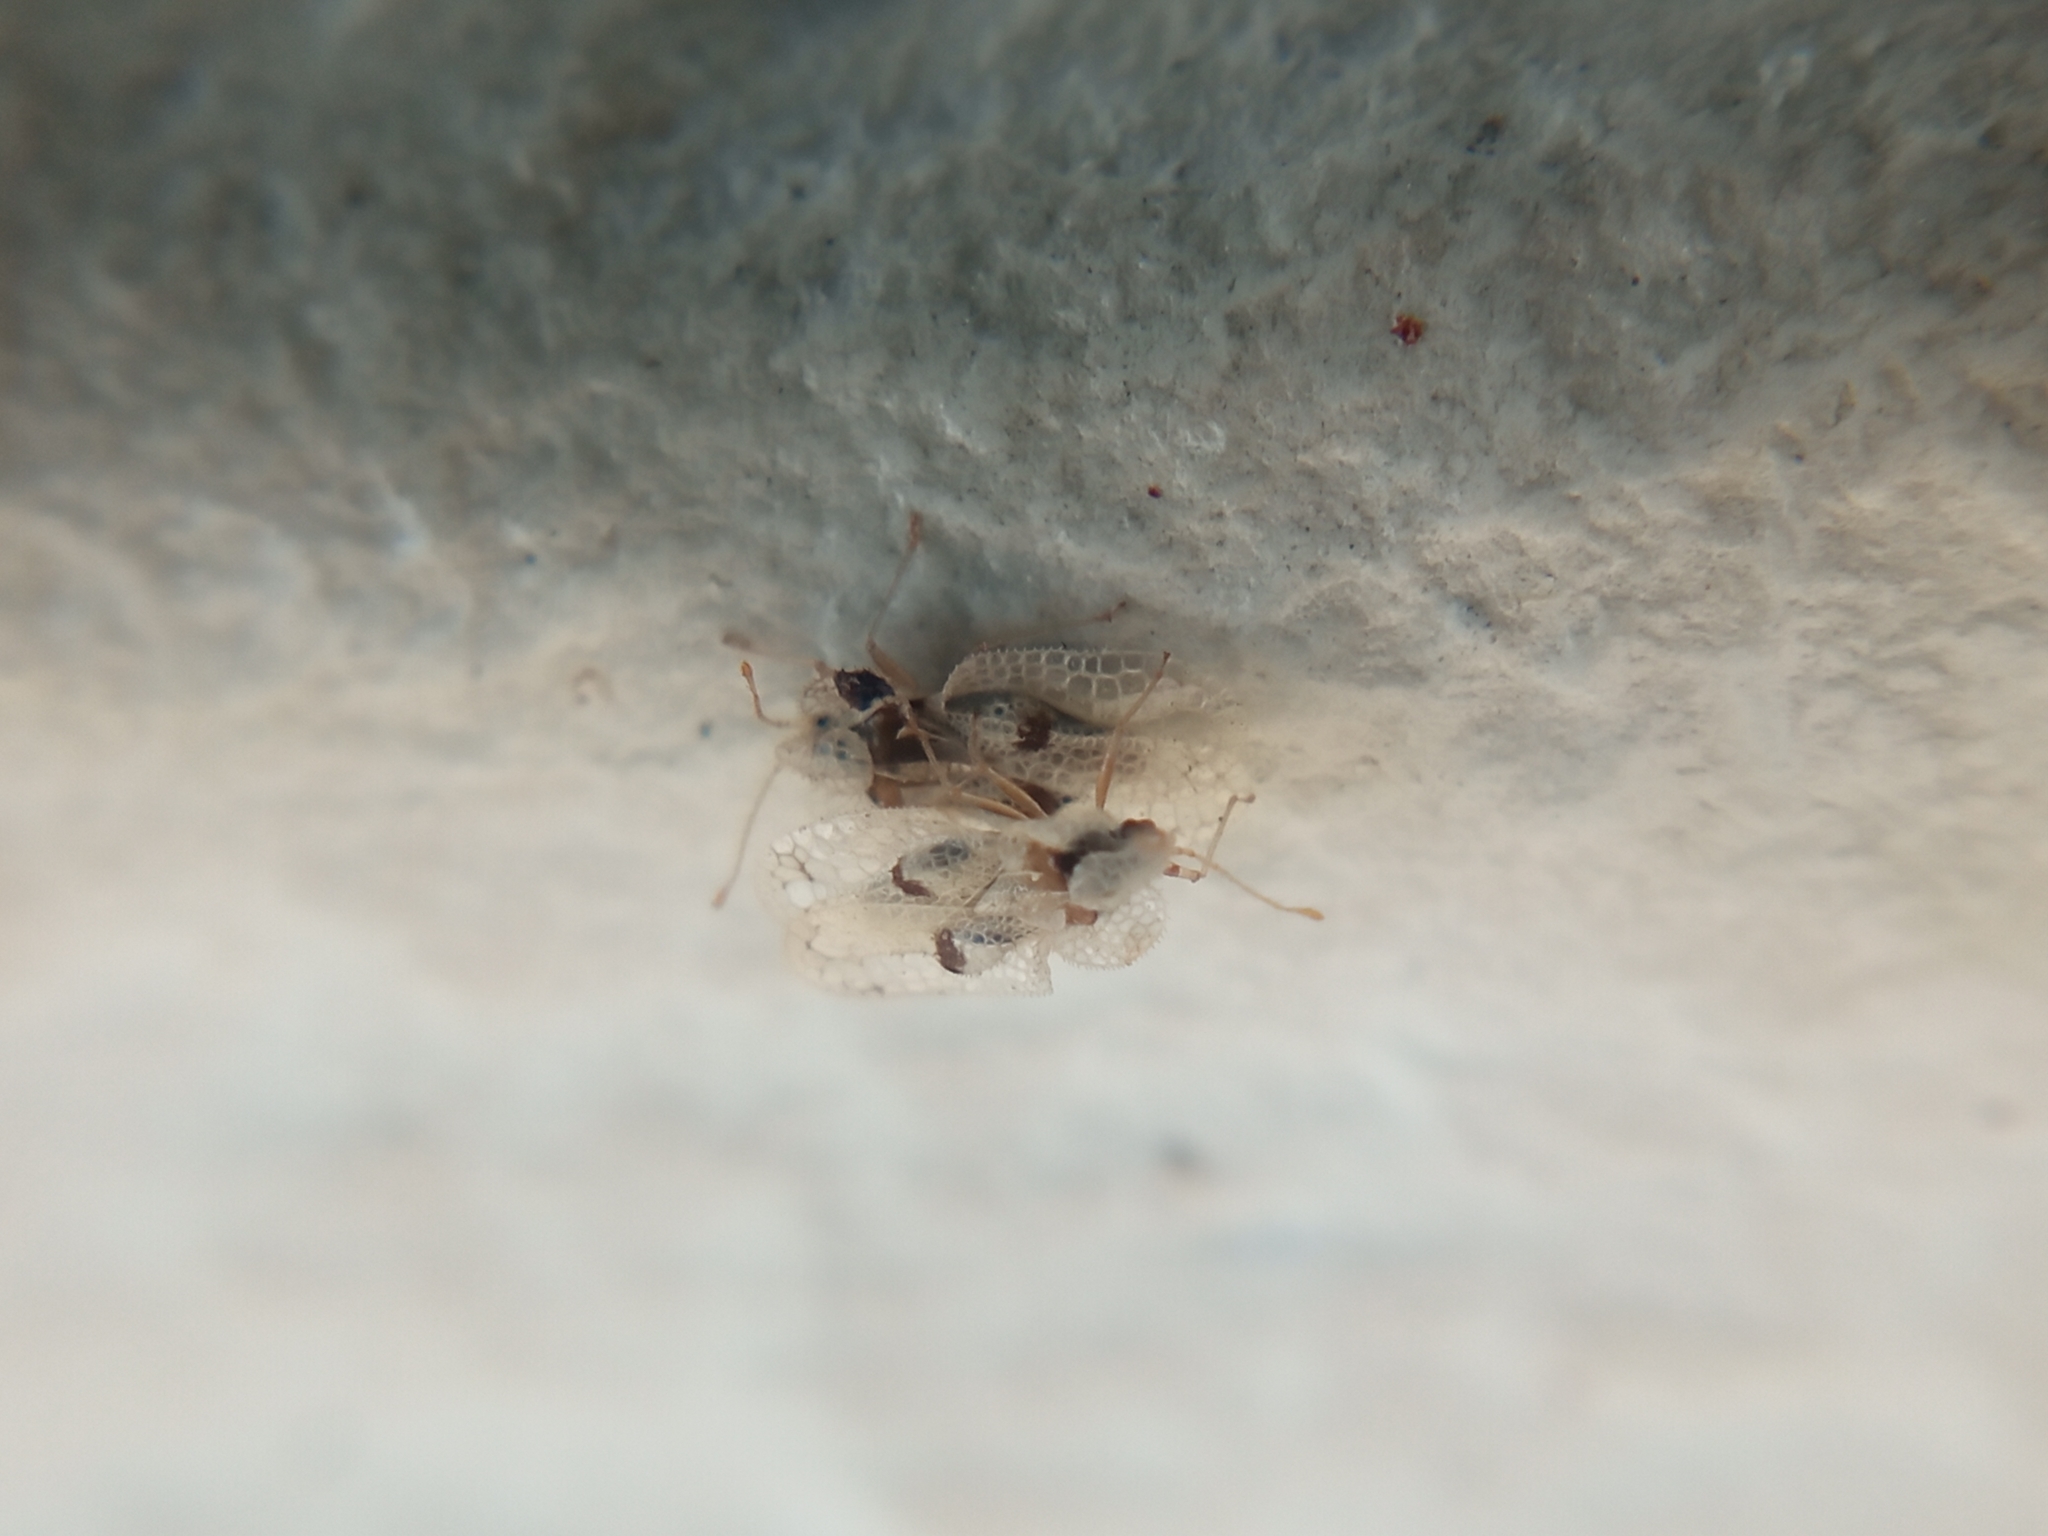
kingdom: Animalia
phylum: Arthropoda
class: Insecta
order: Hemiptera
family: Tingidae
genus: Corythucha
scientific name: Corythucha ciliata
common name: Sycamore lace bug
